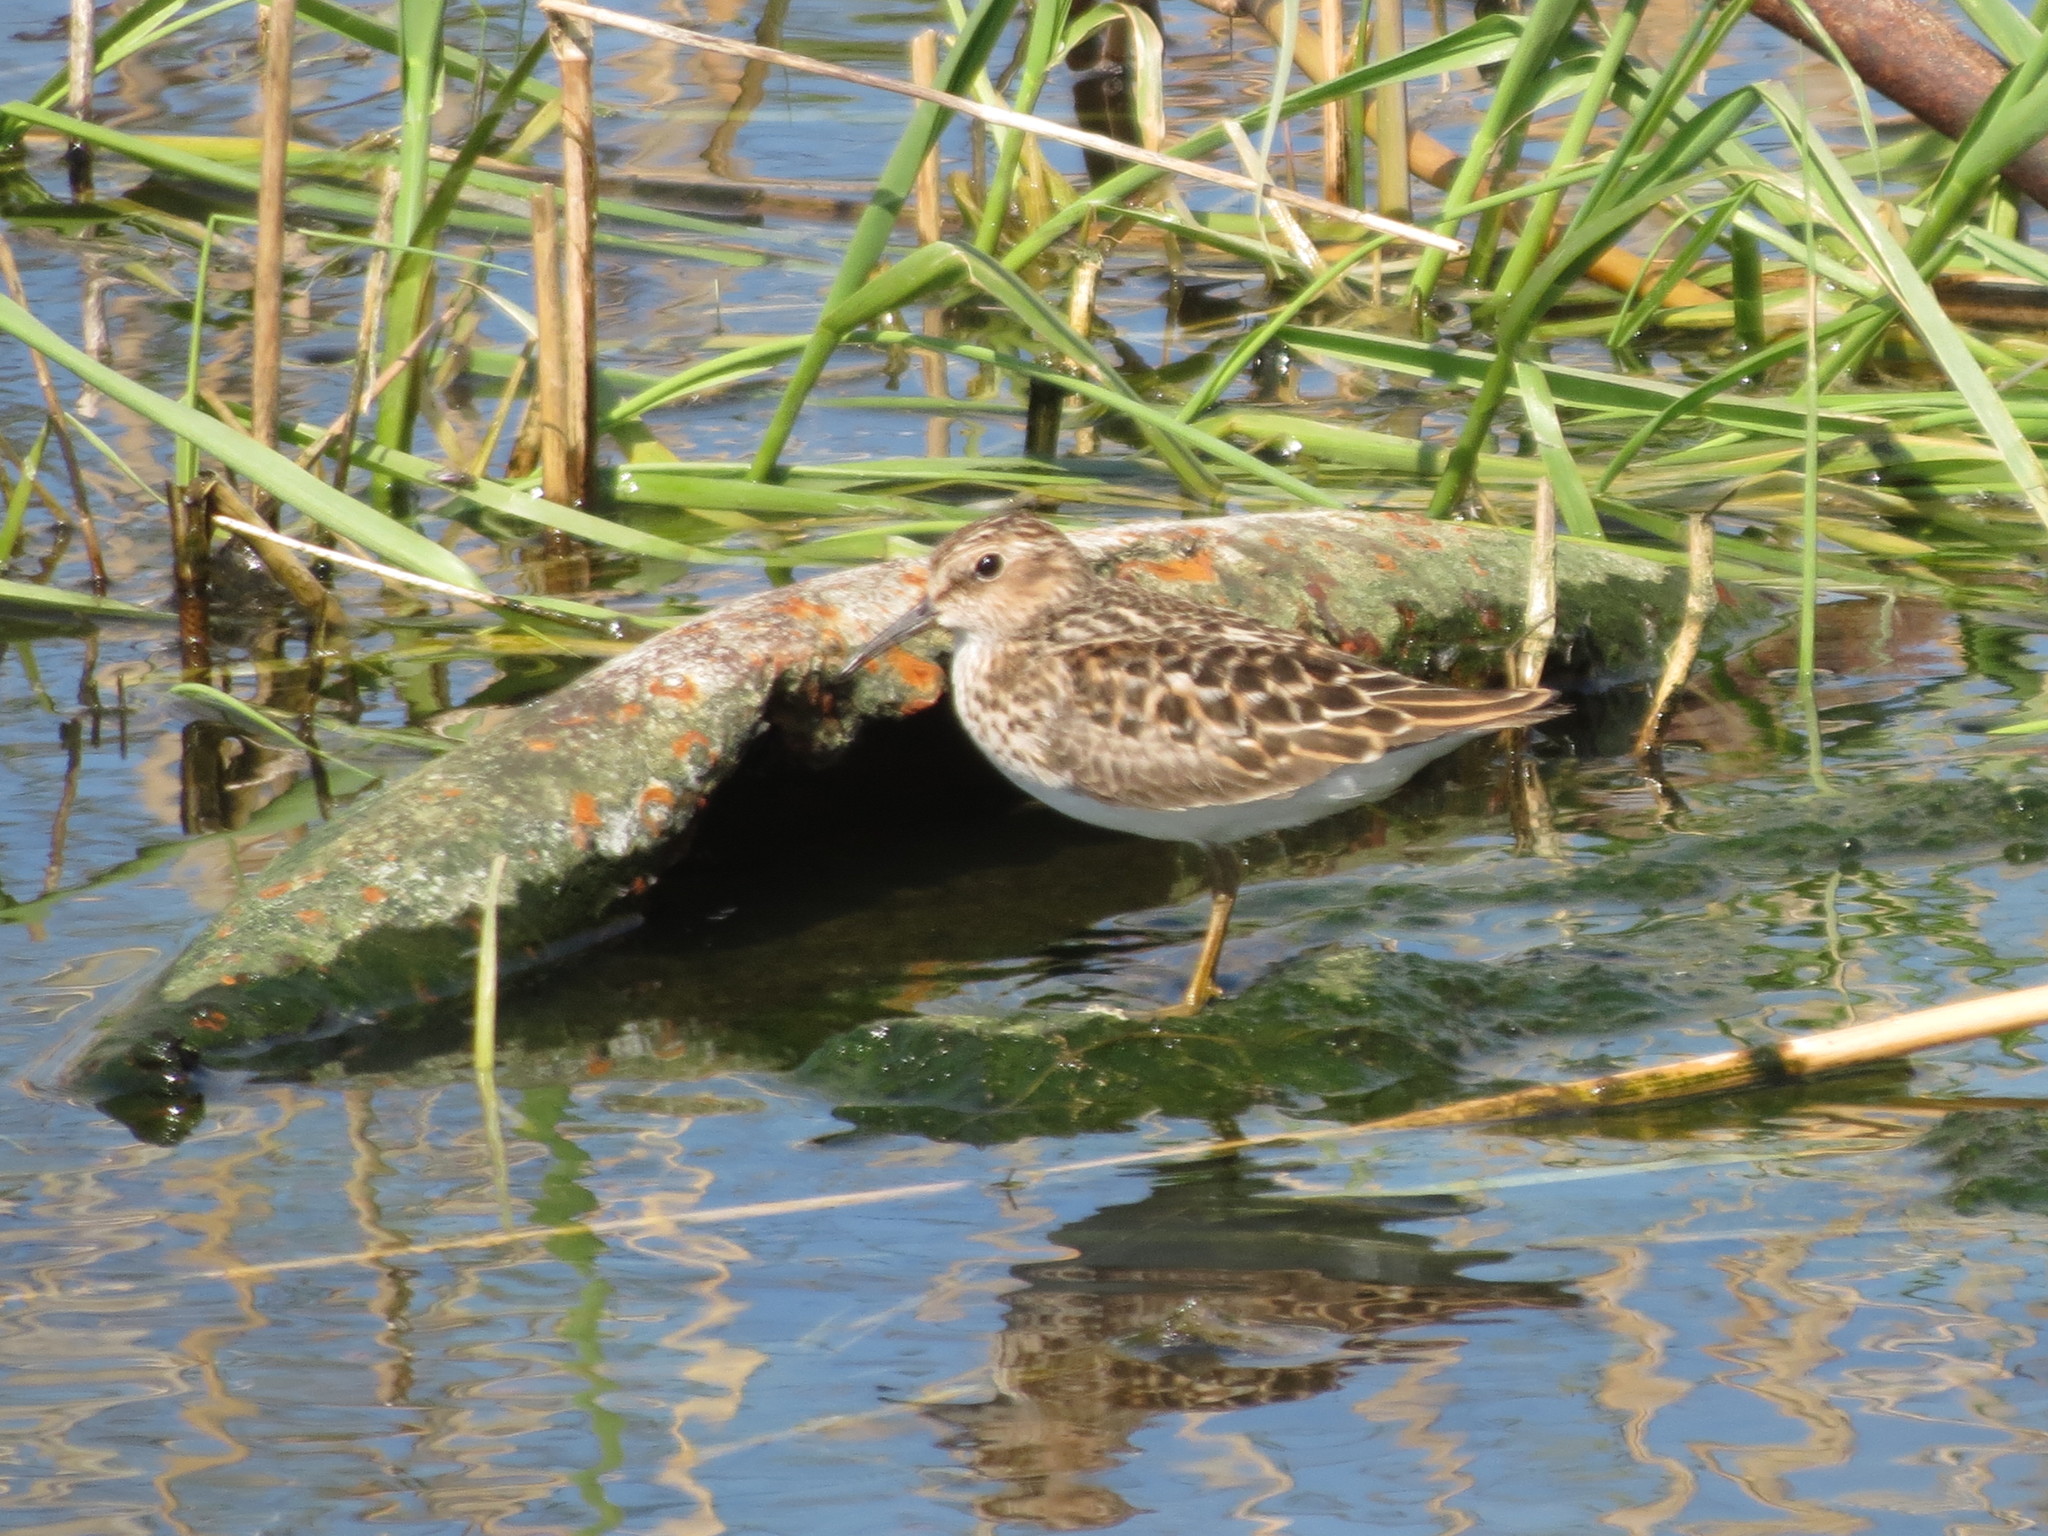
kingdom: Animalia
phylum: Chordata
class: Aves
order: Charadriiformes
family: Scolopacidae
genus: Calidris
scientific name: Calidris minutilla
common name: Least sandpiper
